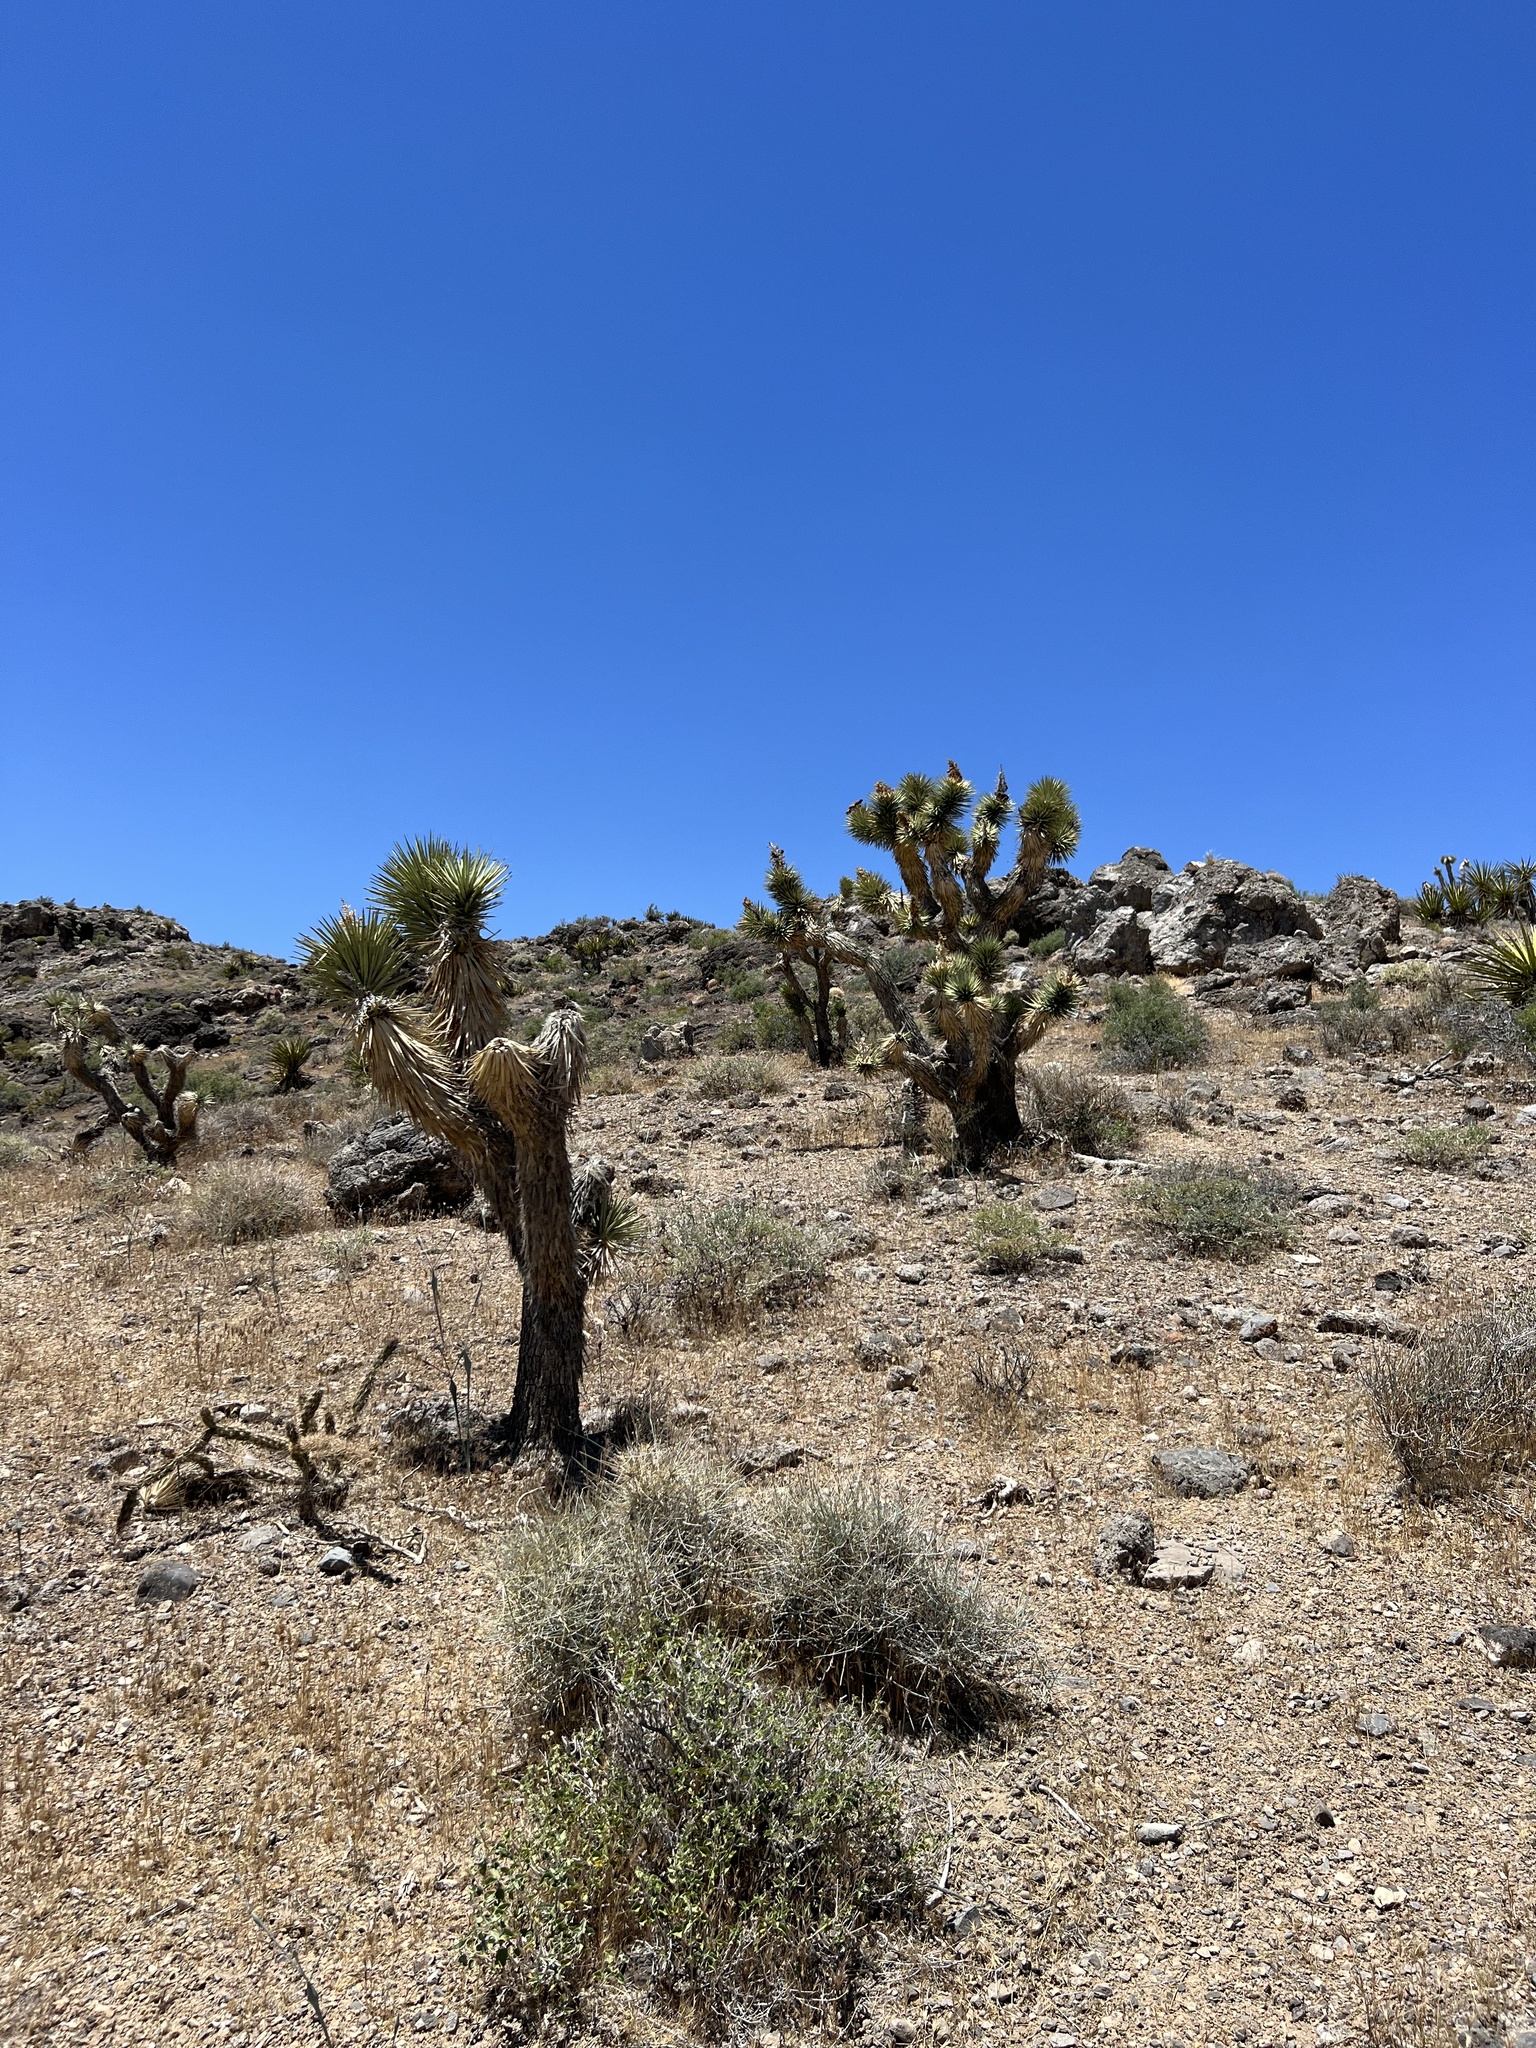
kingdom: Plantae
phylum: Tracheophyta
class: Liliopsida
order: Asparagales
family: Asparagaceae
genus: Yucca
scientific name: Yucca brevifolia
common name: Joshua tree
